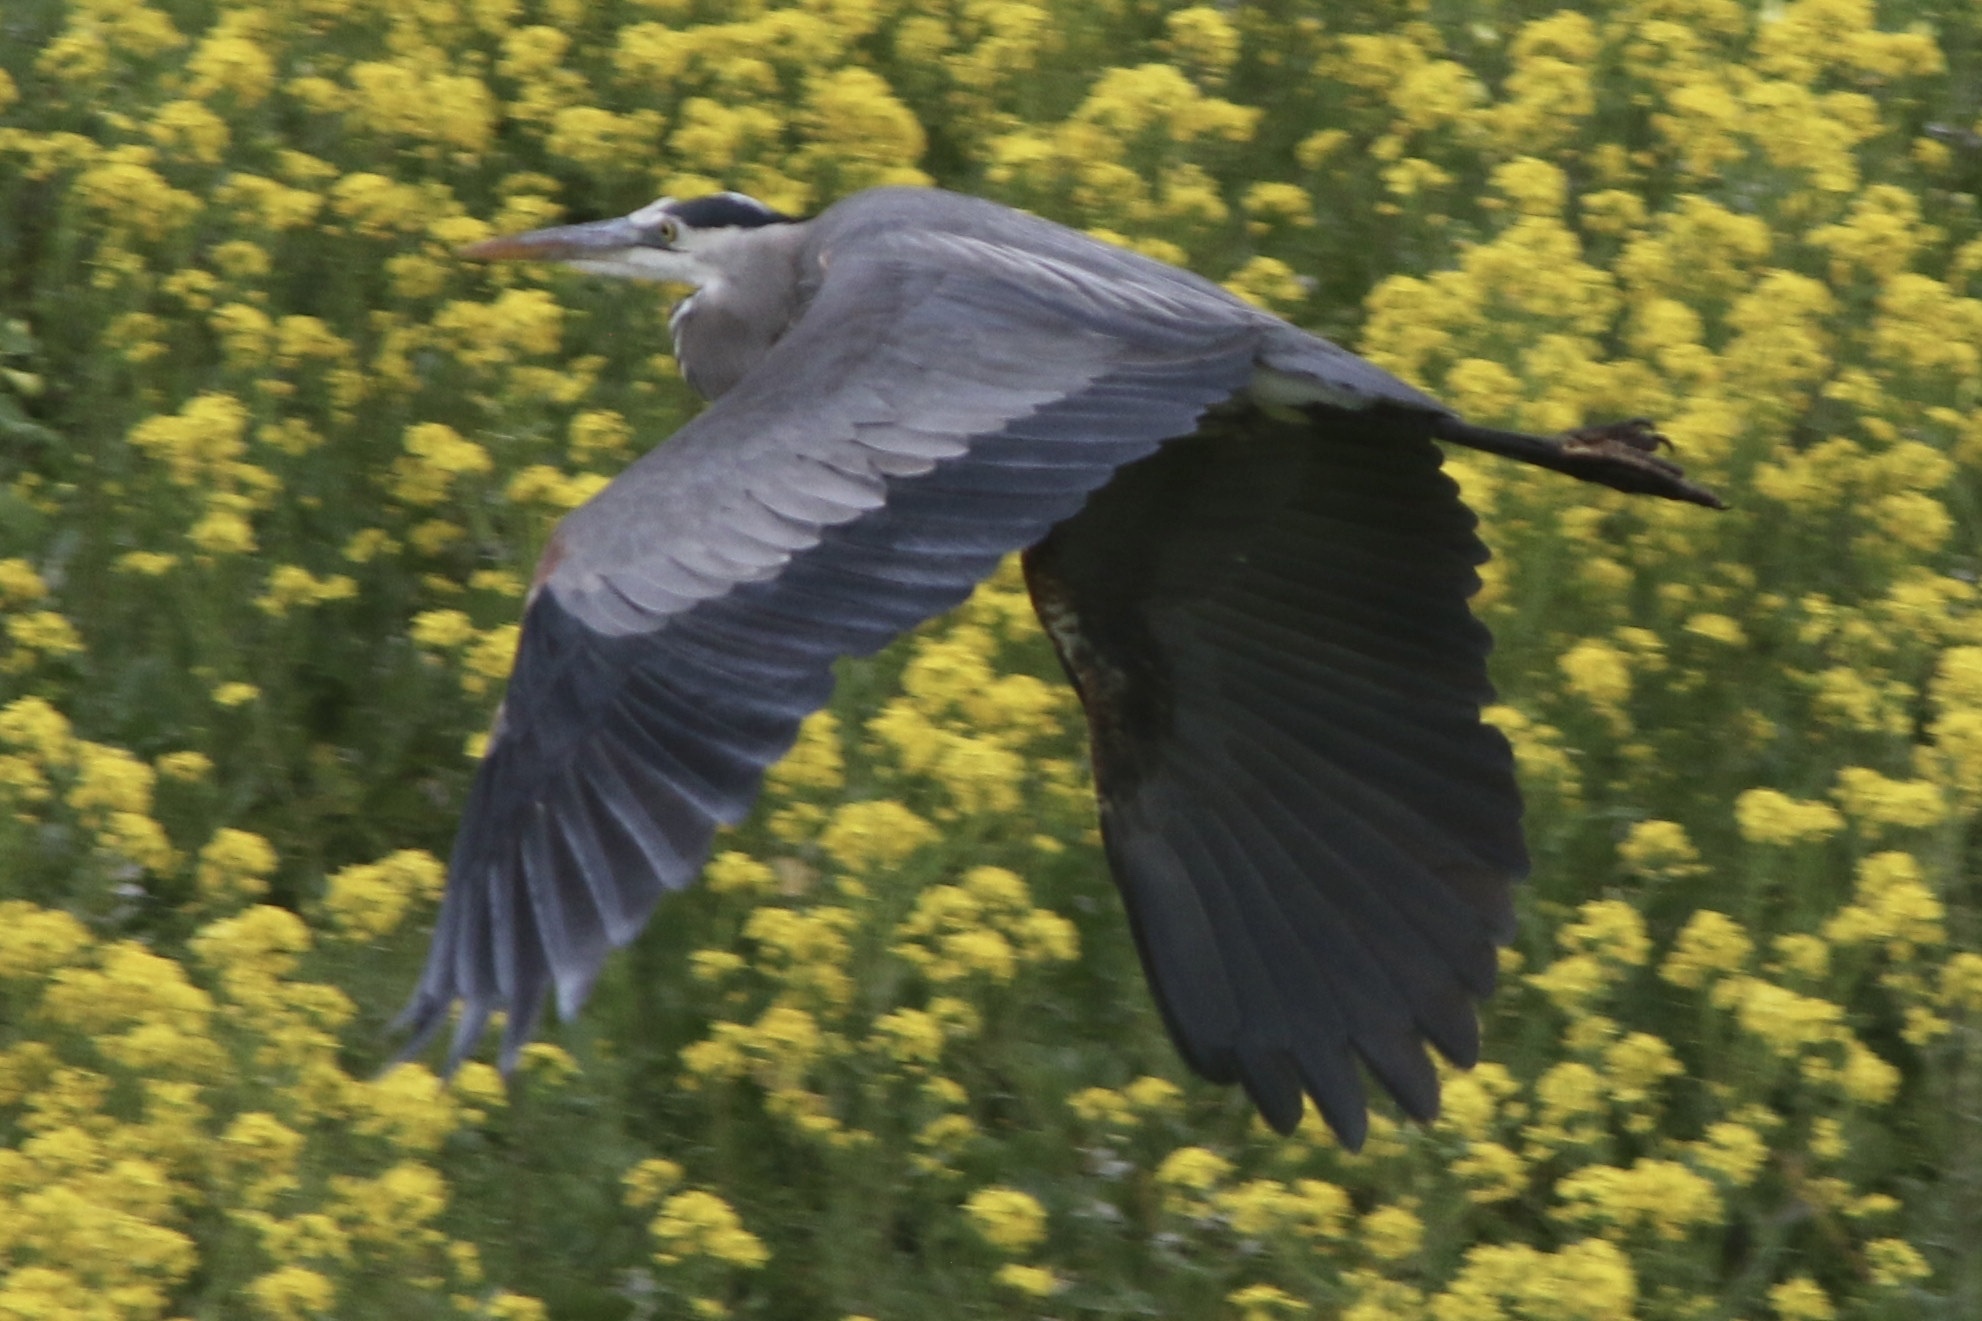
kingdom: Animalia
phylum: Chordata
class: Aves
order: Pelecaniformes
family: Ardeidae
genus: Ardea
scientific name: Ardea herodias
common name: Great blue heron
